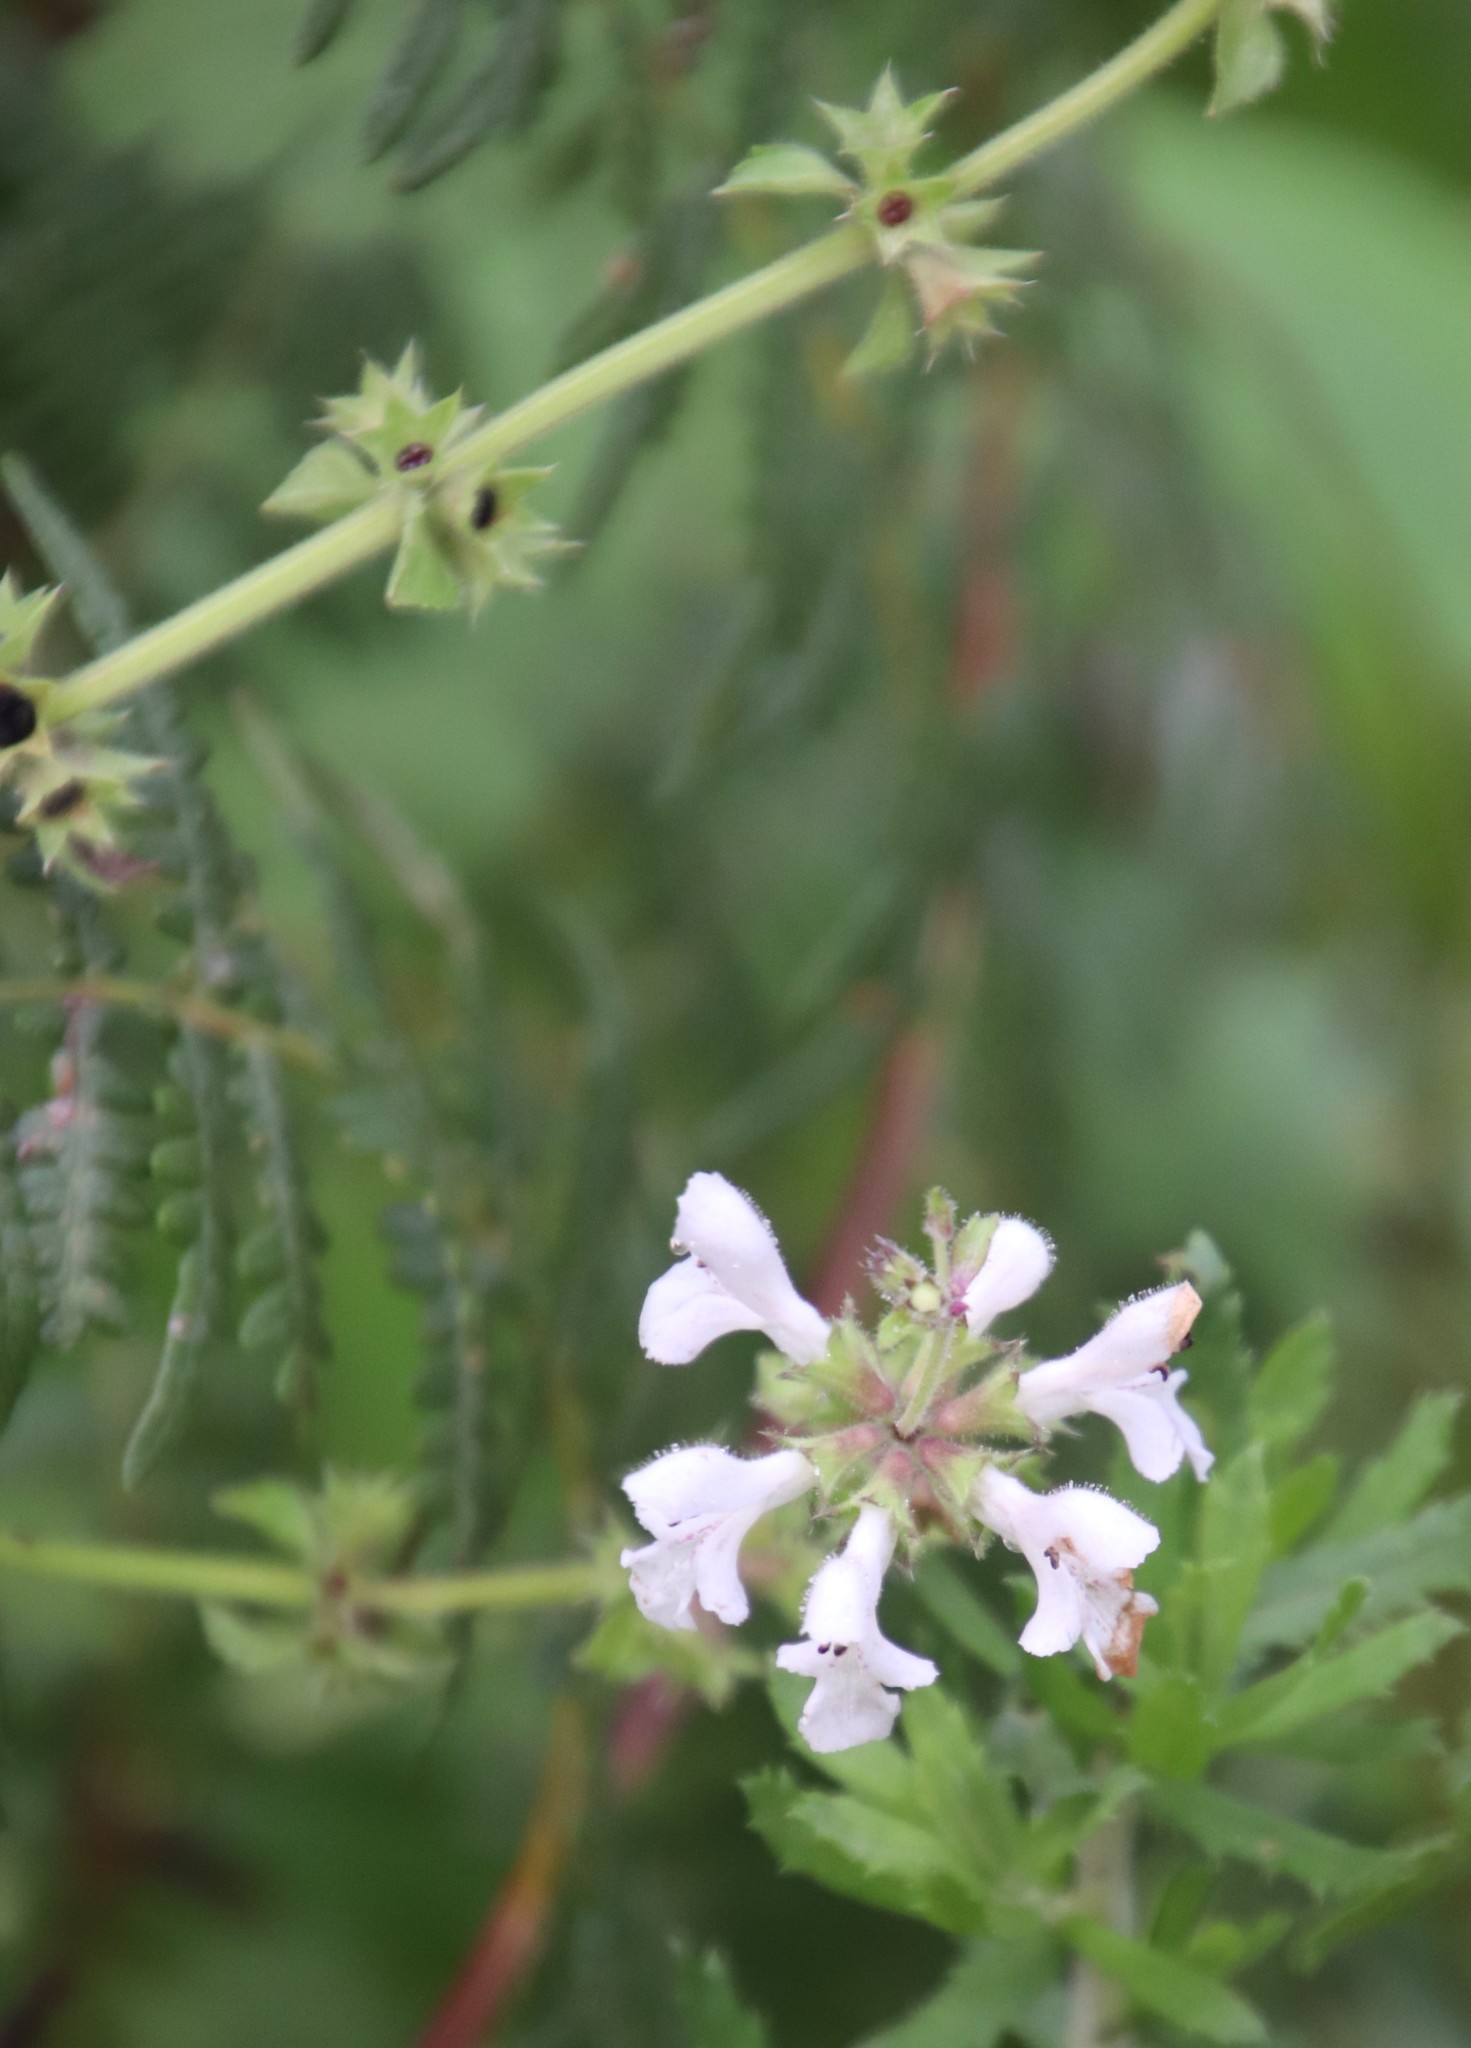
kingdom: Plantae
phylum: Tracheophyta
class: Magnoliopsida
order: Lamiales
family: Lamiaceae
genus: Stachys
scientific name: Stachys aethiopica
